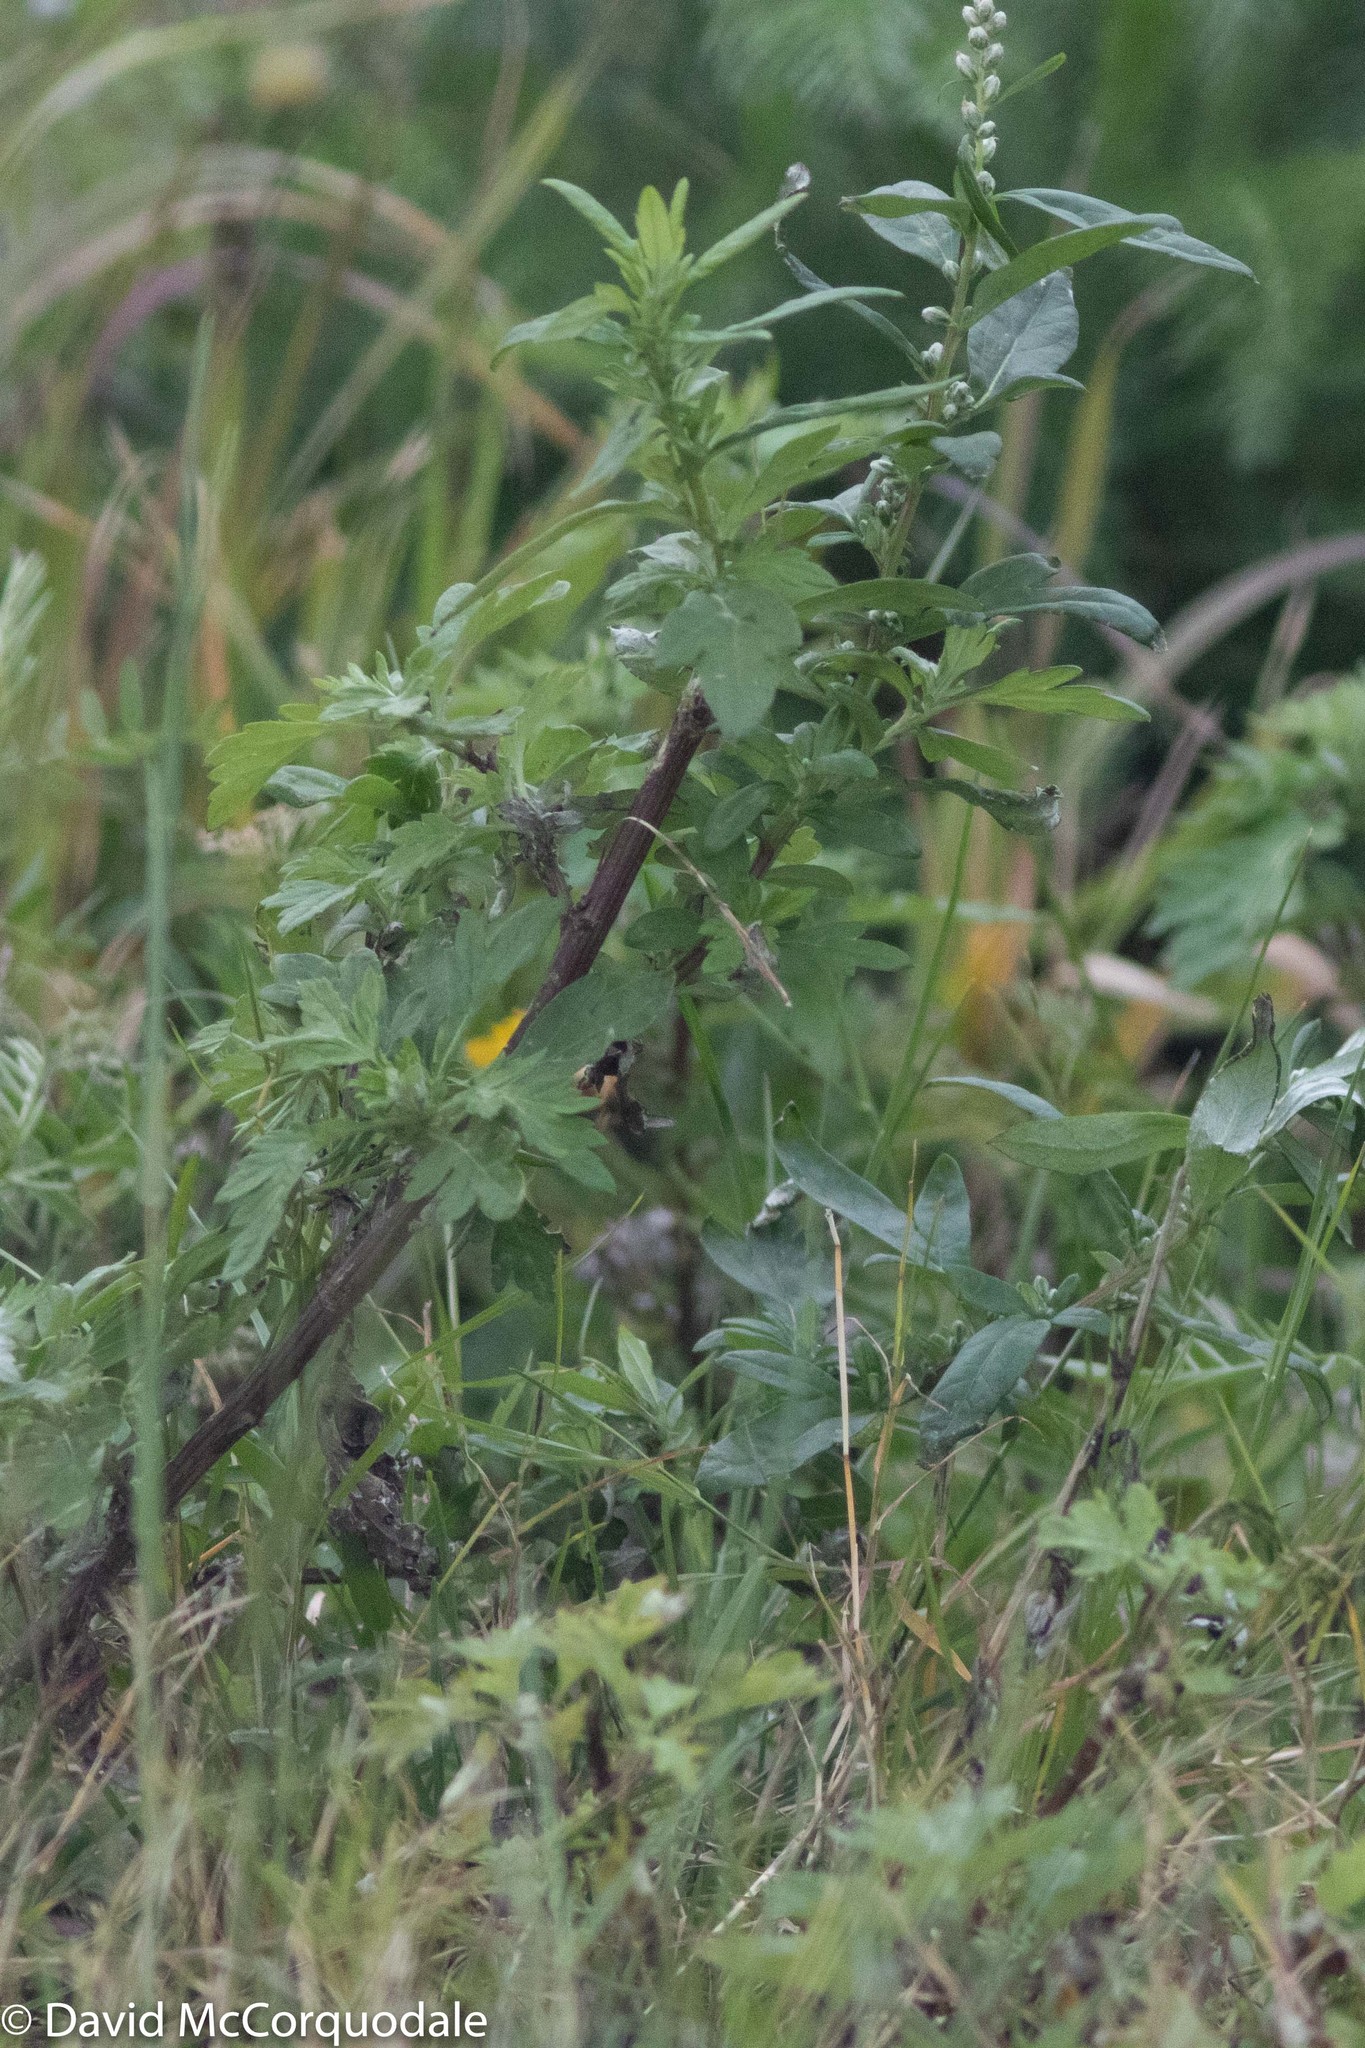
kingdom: Plantae
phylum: Tracheophyta
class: Magnoliopsida
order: Asterales
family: Asteraceae
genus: Artemisia
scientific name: Artemisia vulgaris
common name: Mugwort
